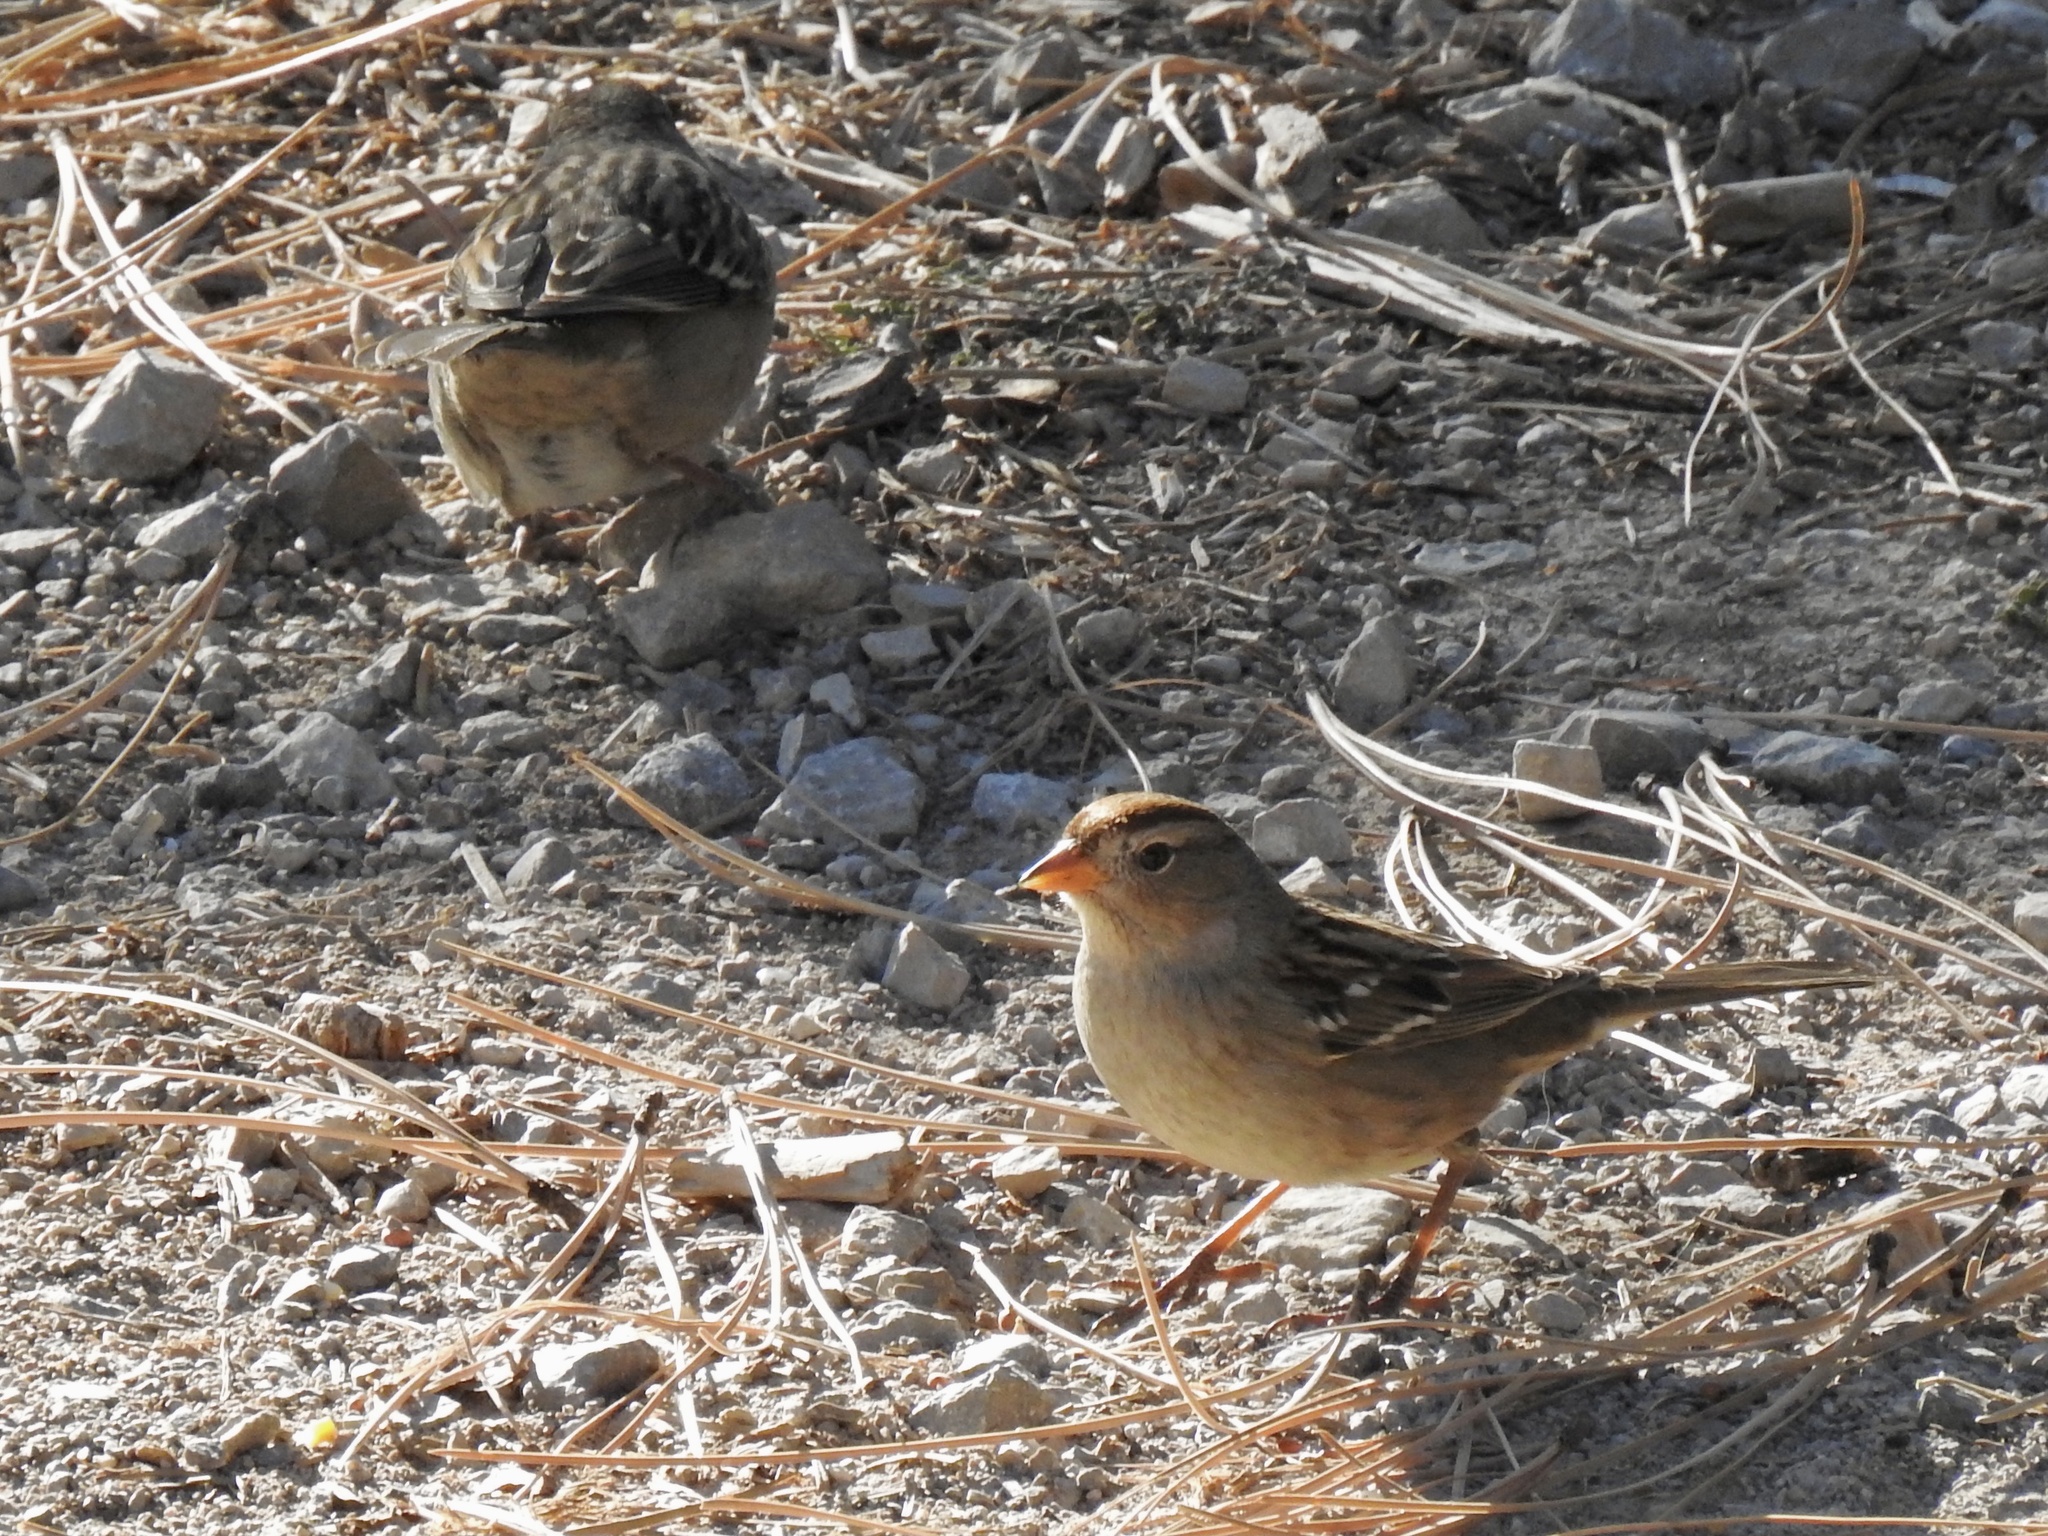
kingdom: Animalia
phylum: Chordata
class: Aves
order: Passeriformes
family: Passerellidae
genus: Zonotrichia
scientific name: Zonotrichia leucophrys
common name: White-crowned sparrow
